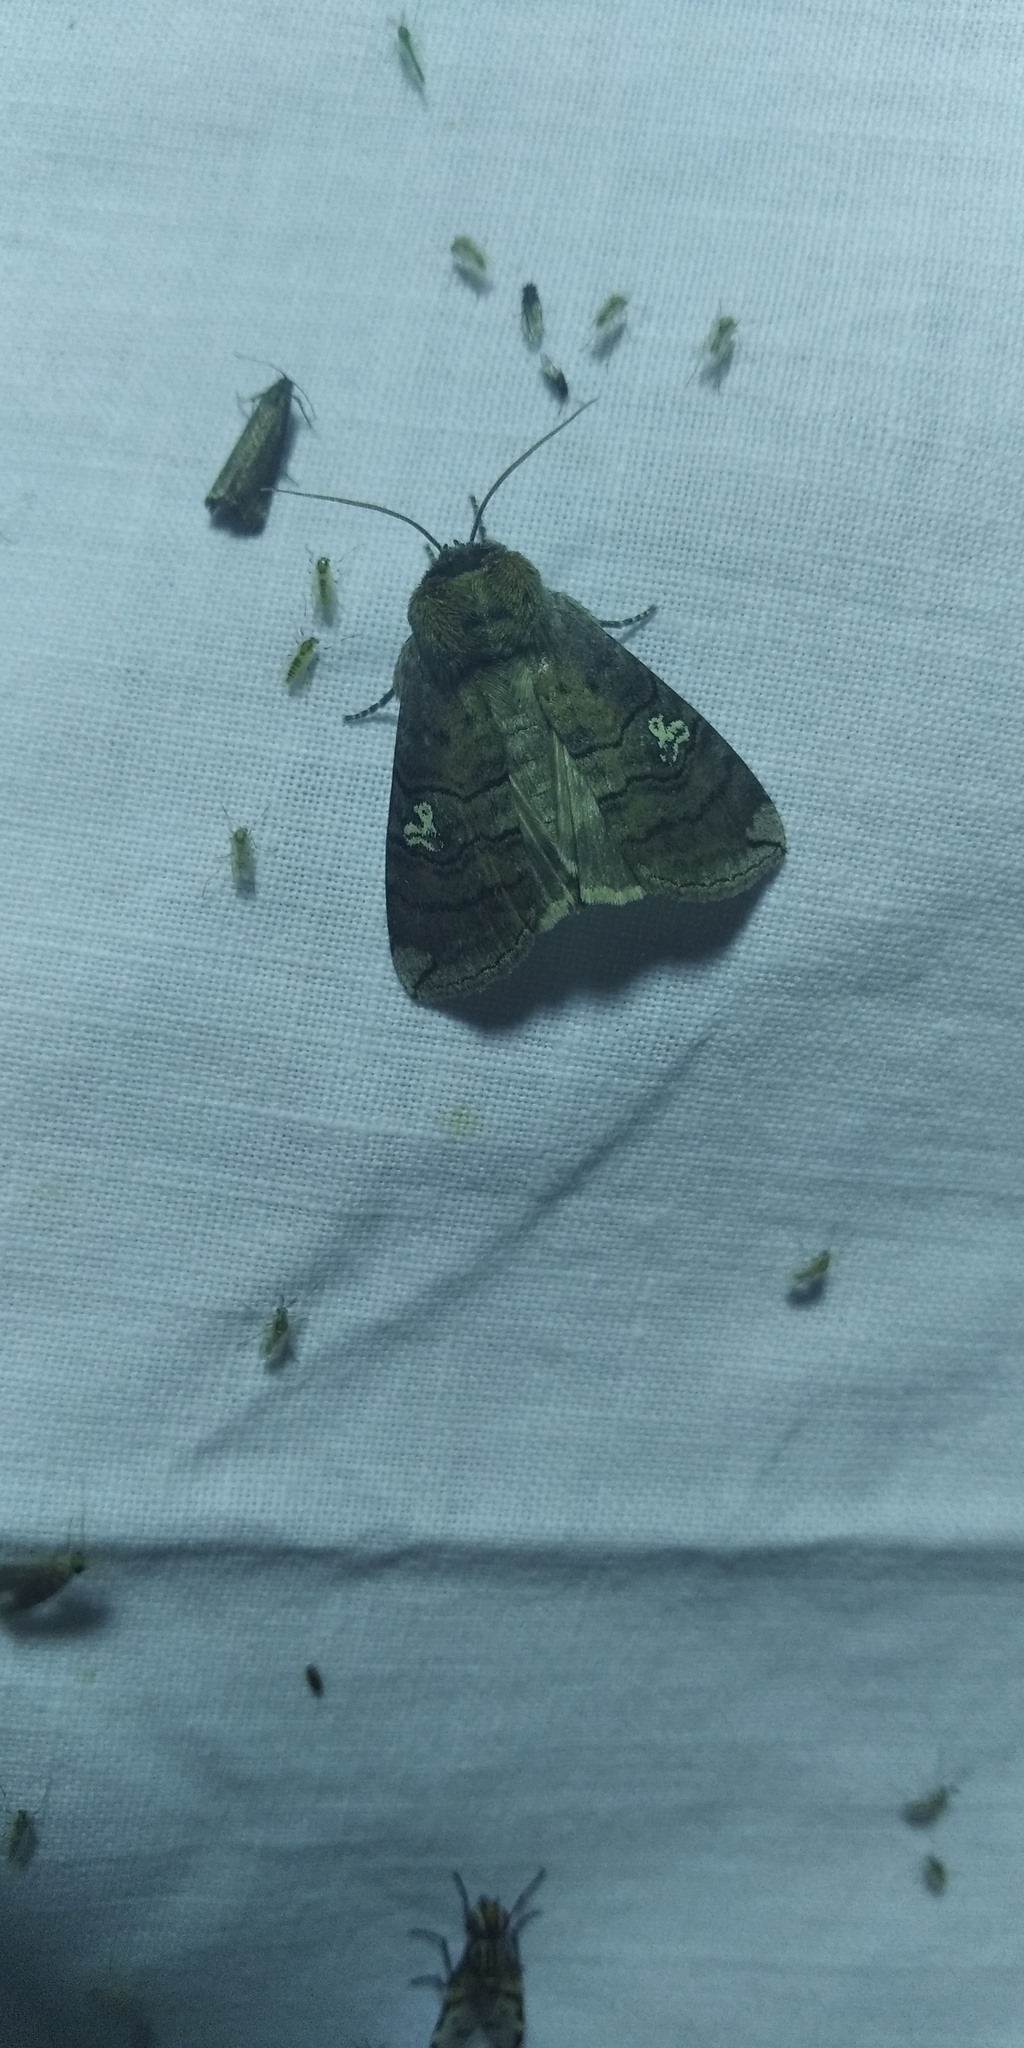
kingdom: Animalia
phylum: Arthropoda
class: Insecta
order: Lepidoptera
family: Drepanidae
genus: Tethea
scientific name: Tethea ocularis
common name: Figure of eighty
